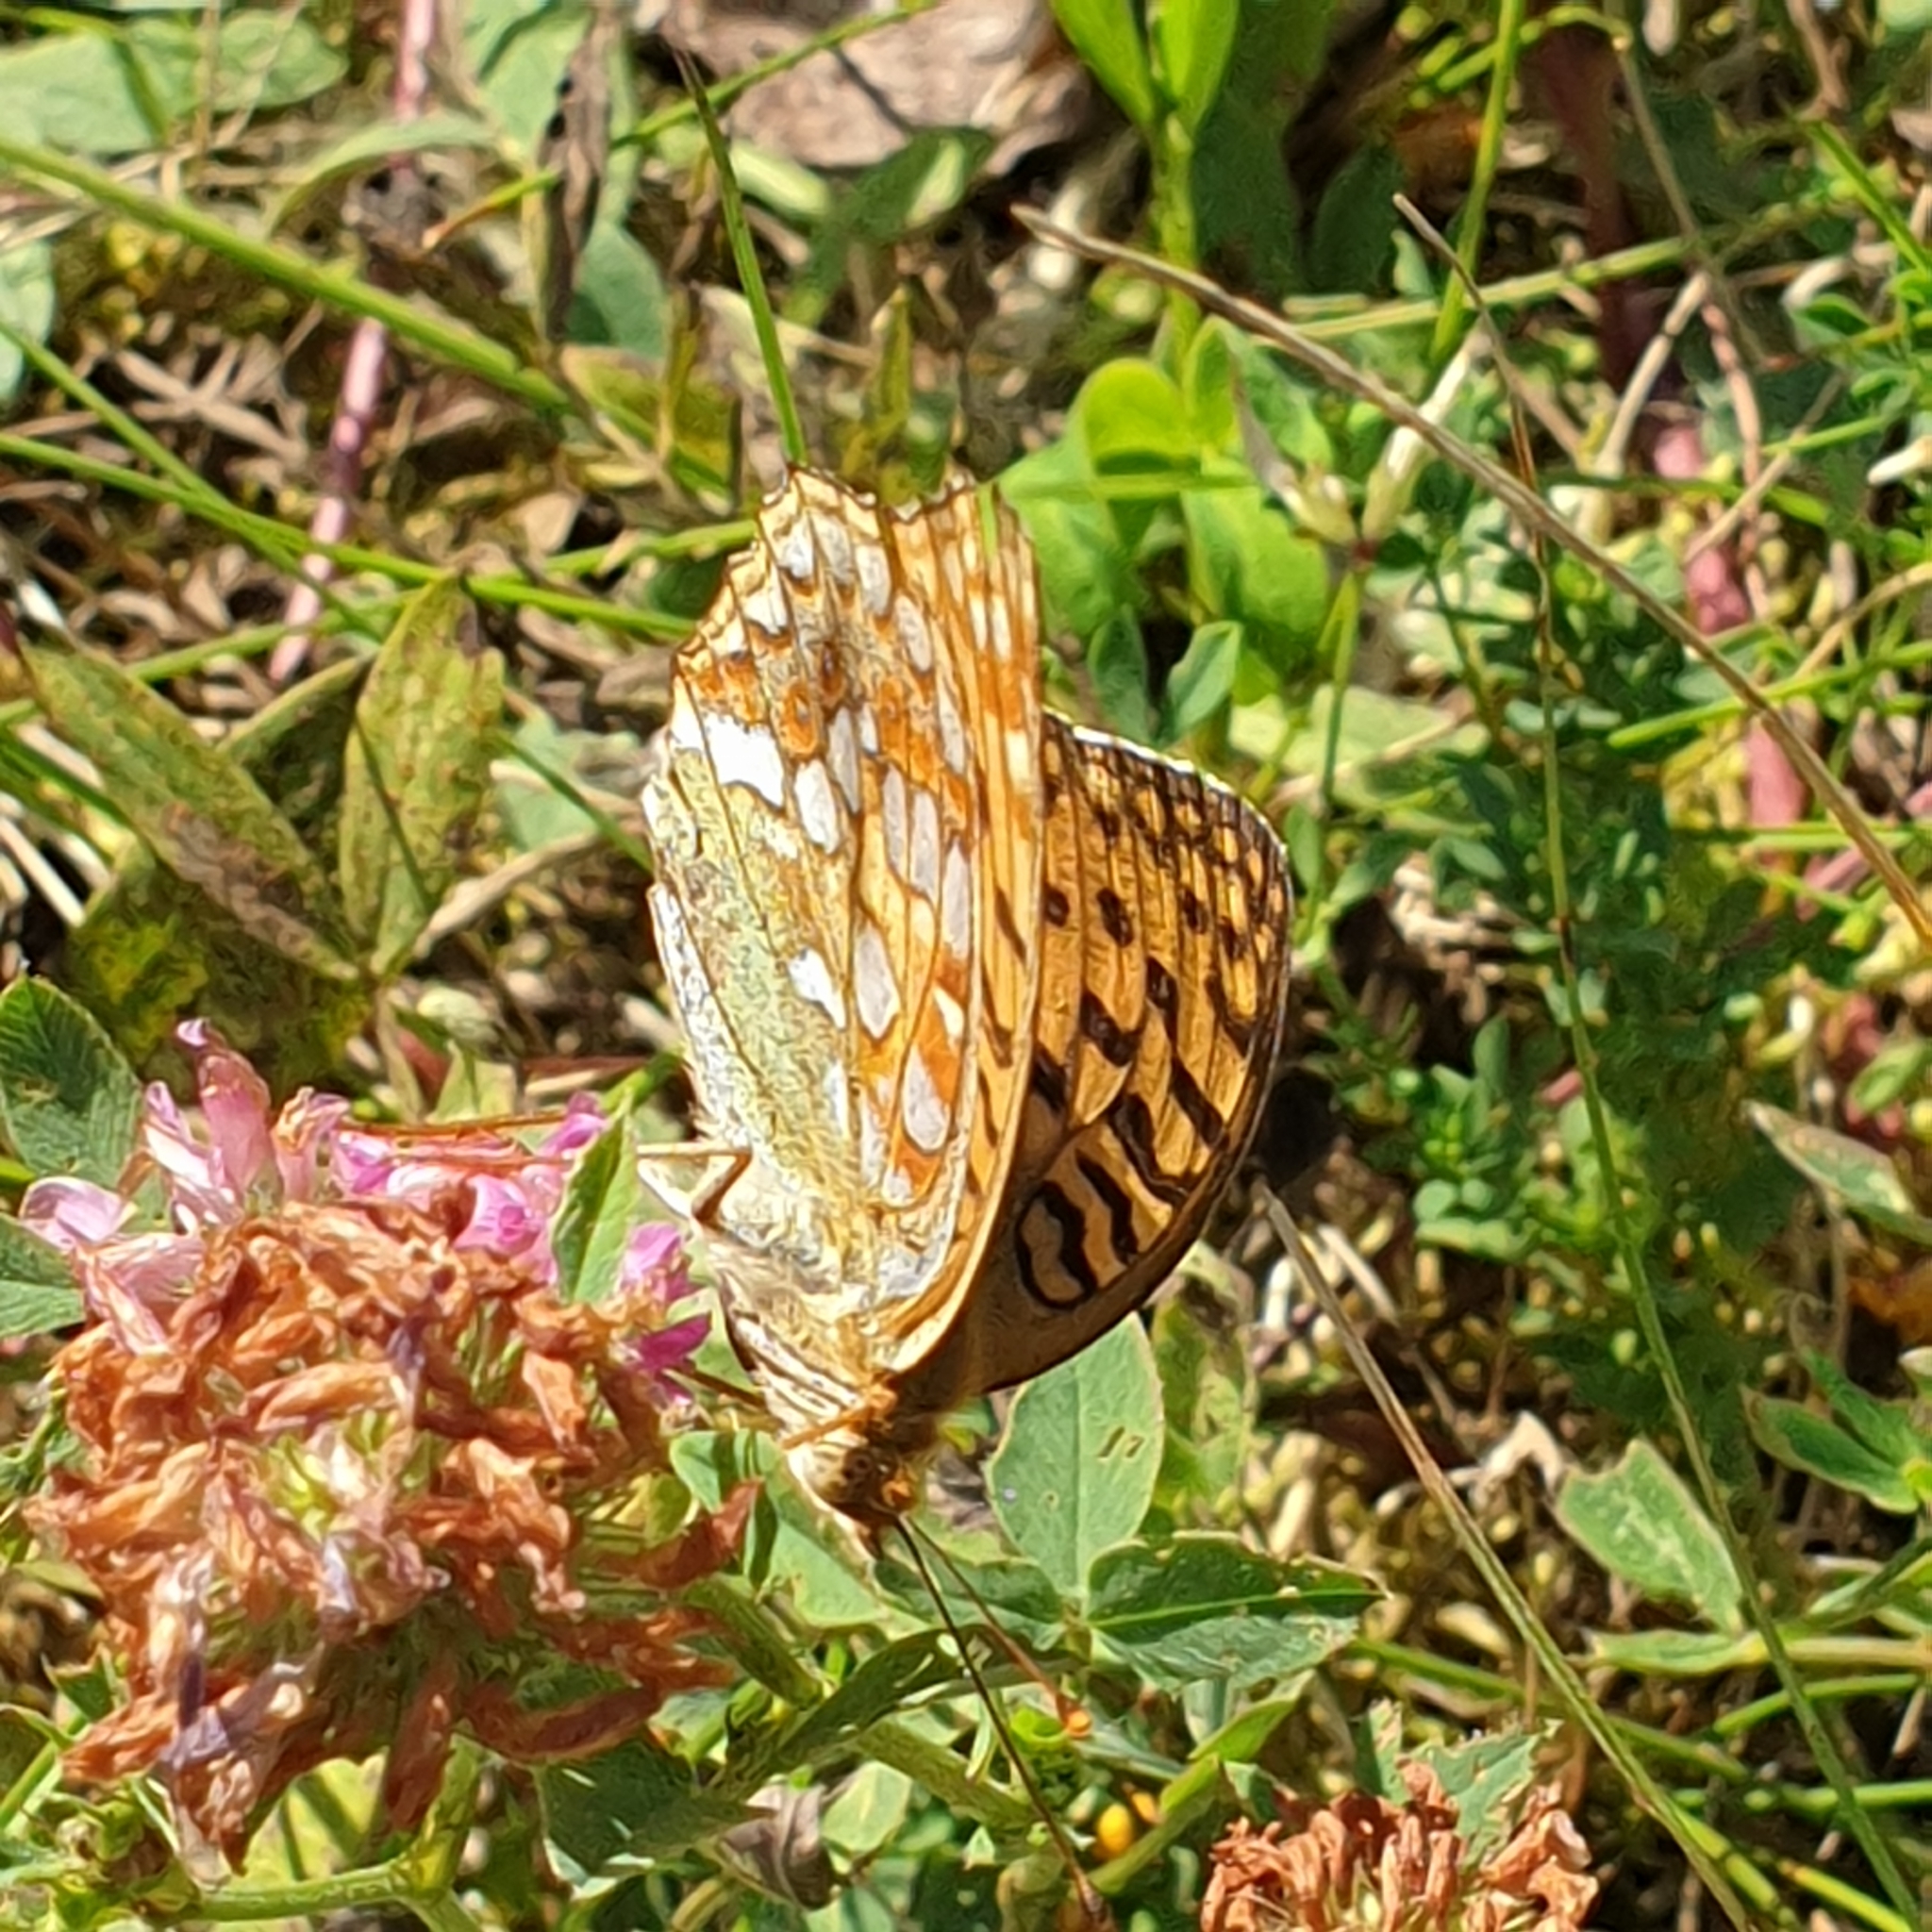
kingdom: Animalia
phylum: Arthropoda
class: Insecta
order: Lepidoptera
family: Nymphalidae
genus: Fabriciana
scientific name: Fabriciana adippe
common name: High brown fritillary
